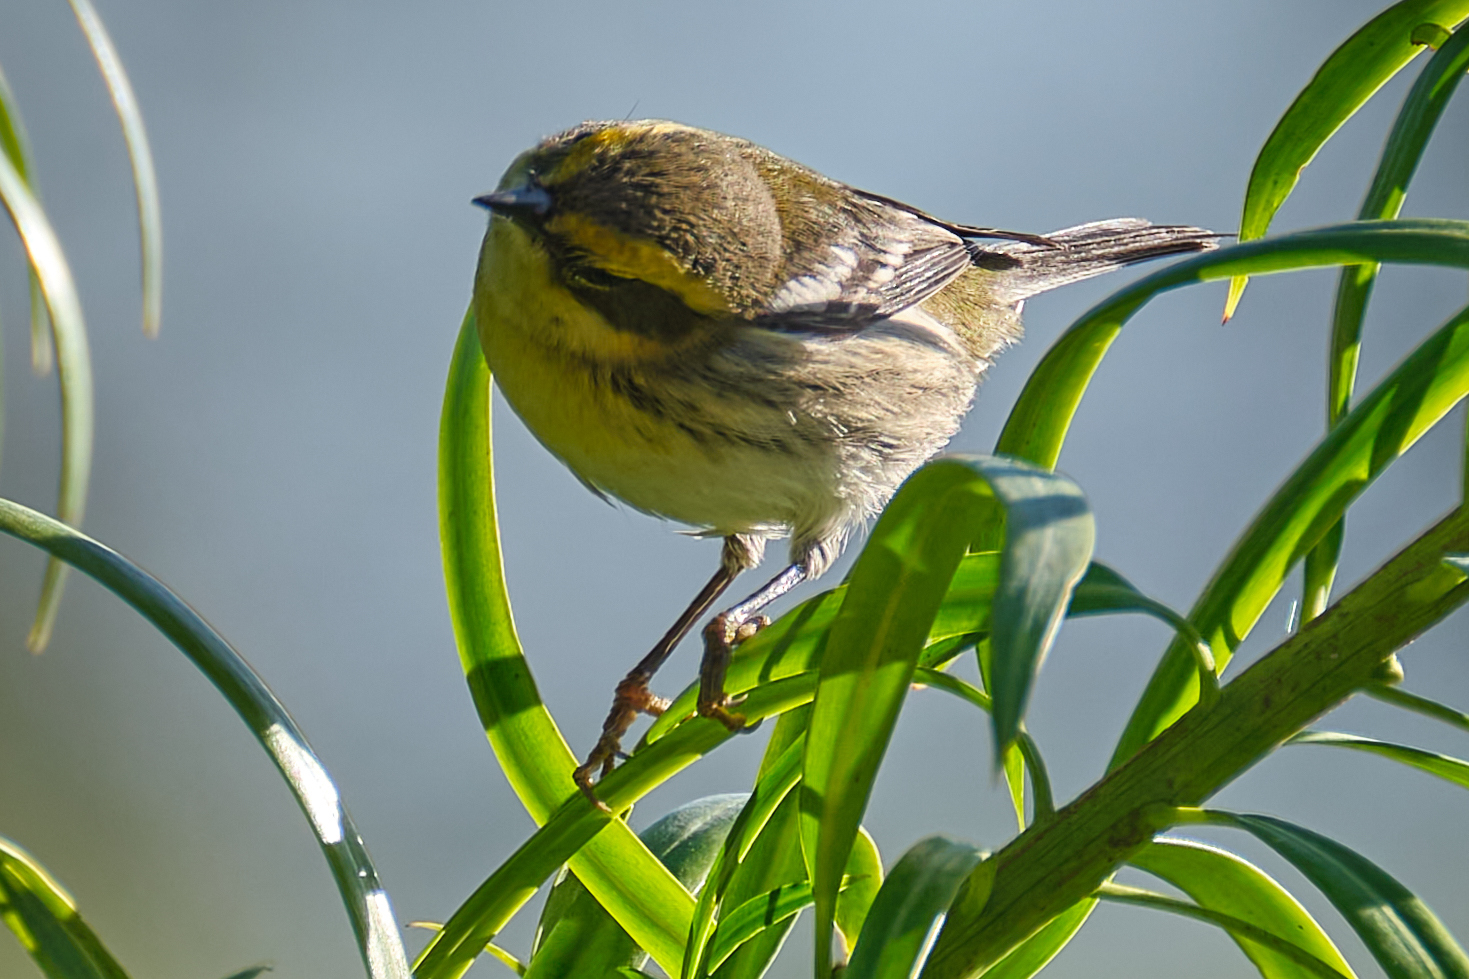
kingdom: Animalia
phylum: Chordata
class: Aves
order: Passeriformes
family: Parulidae
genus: Setophaga
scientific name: Setophaga townsendi
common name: Townsend's warbler
